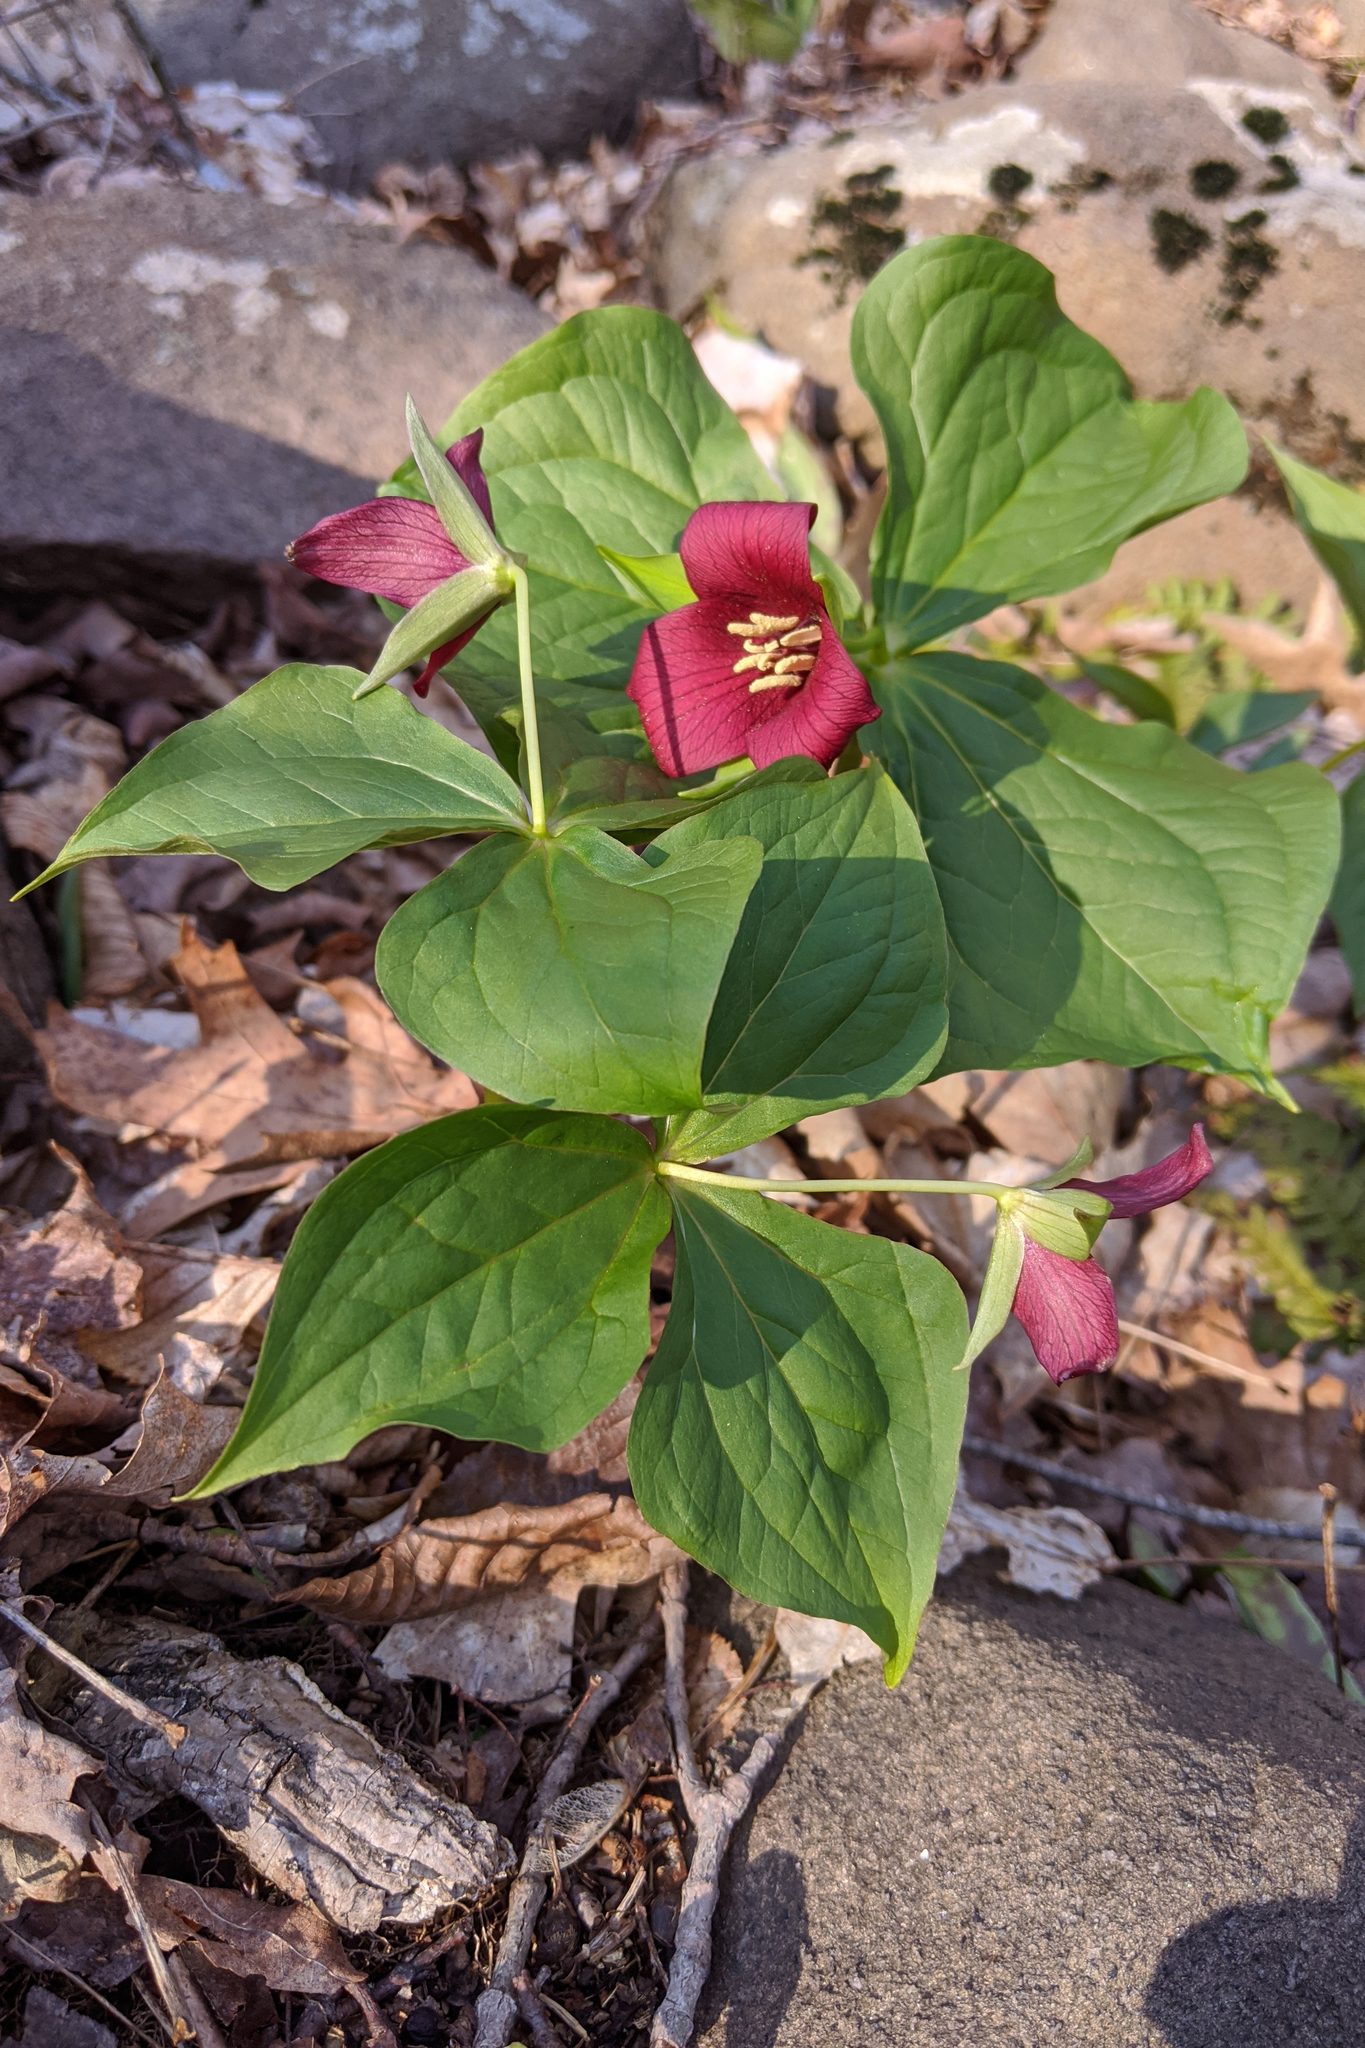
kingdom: Plantae
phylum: Tracheophyta
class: Liliopsida
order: Liliales
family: Melanthiaceae
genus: Trillium
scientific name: Trillium erectum
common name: Purple trillium
